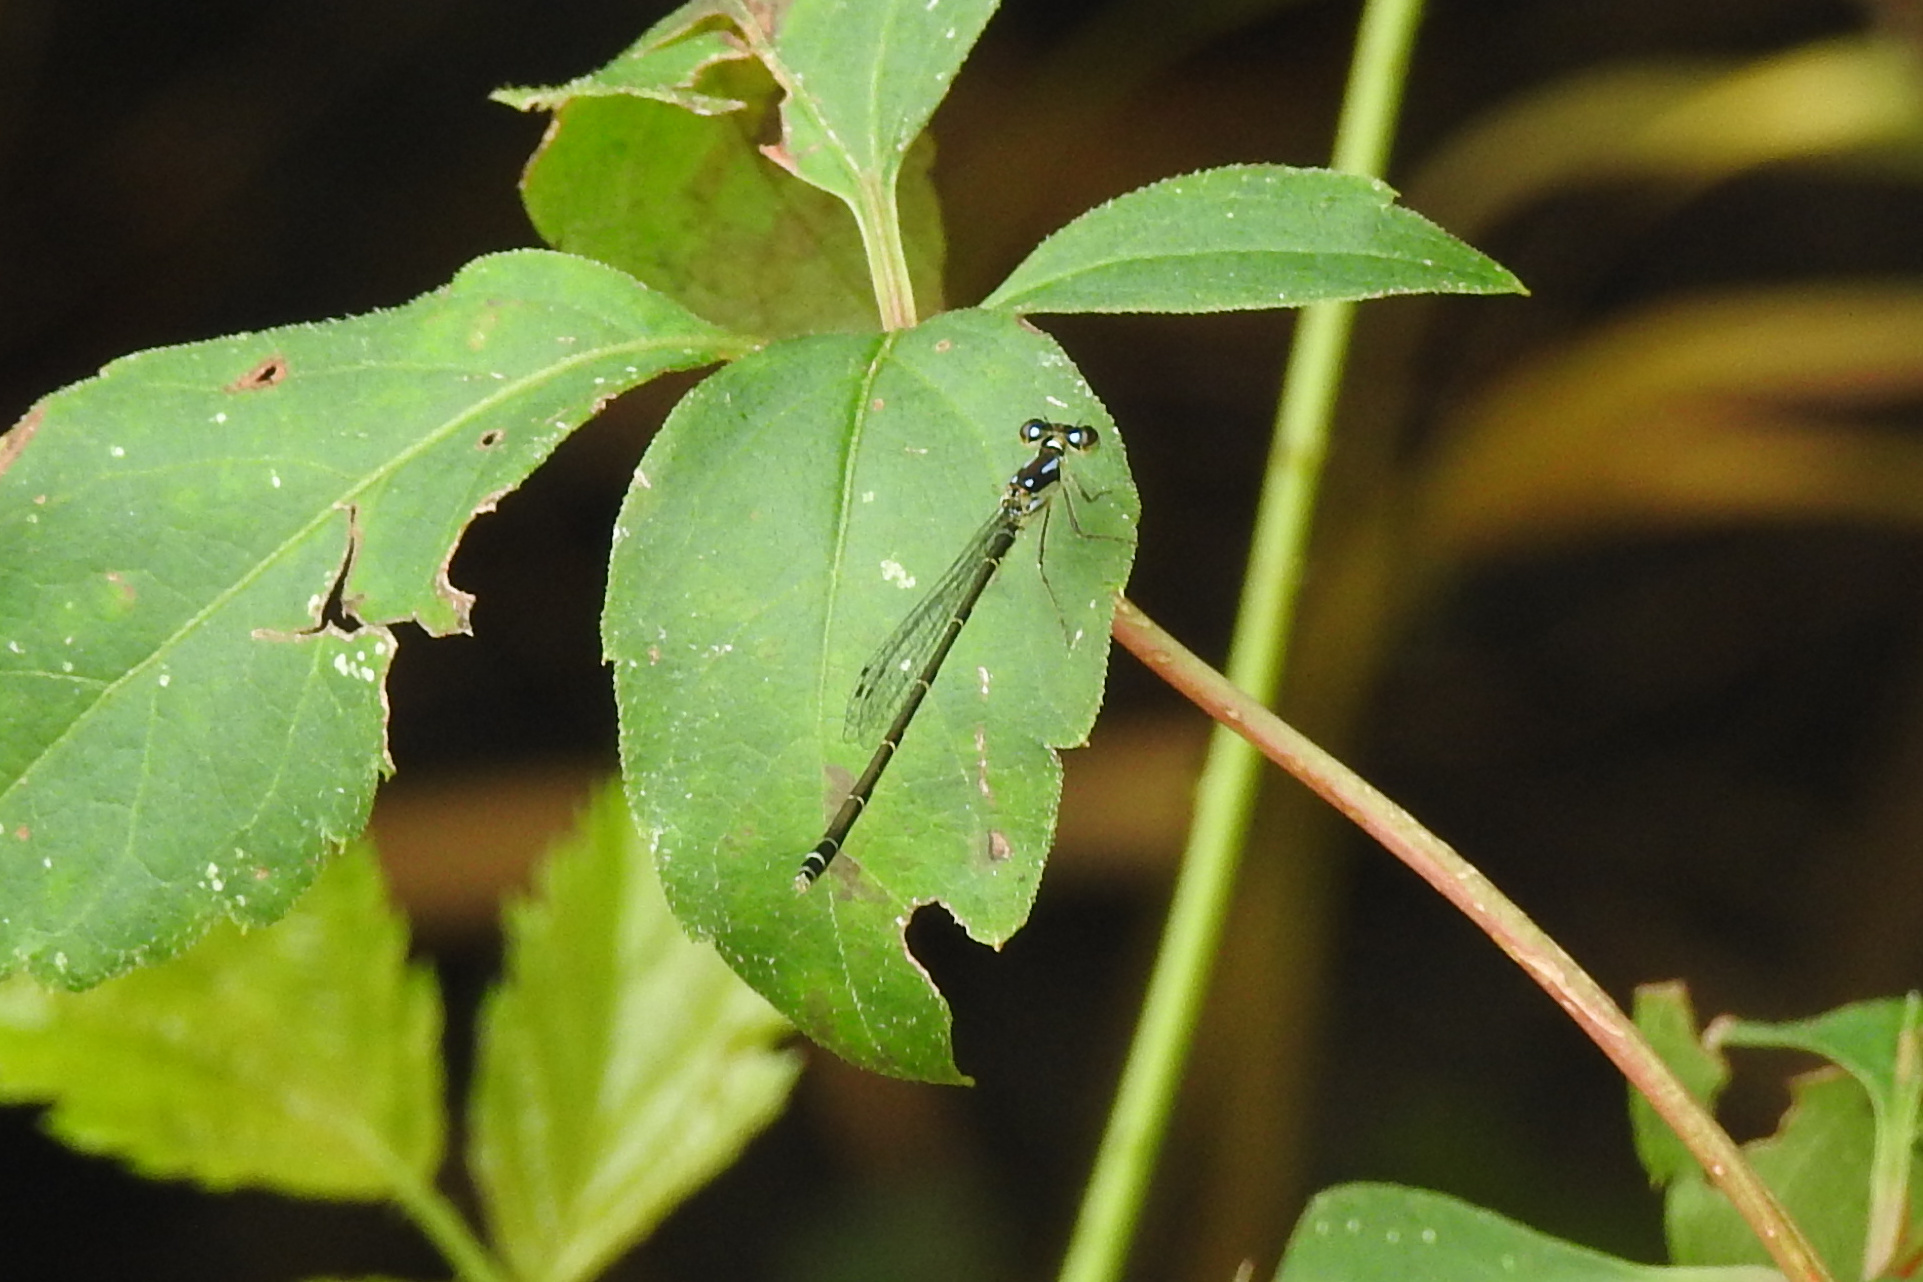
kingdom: Animalia
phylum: Arthropoda
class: Insecta
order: Odonata
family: Coenagrionidae
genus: Ischnura
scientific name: Ischnura posita
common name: Fragile forktail
